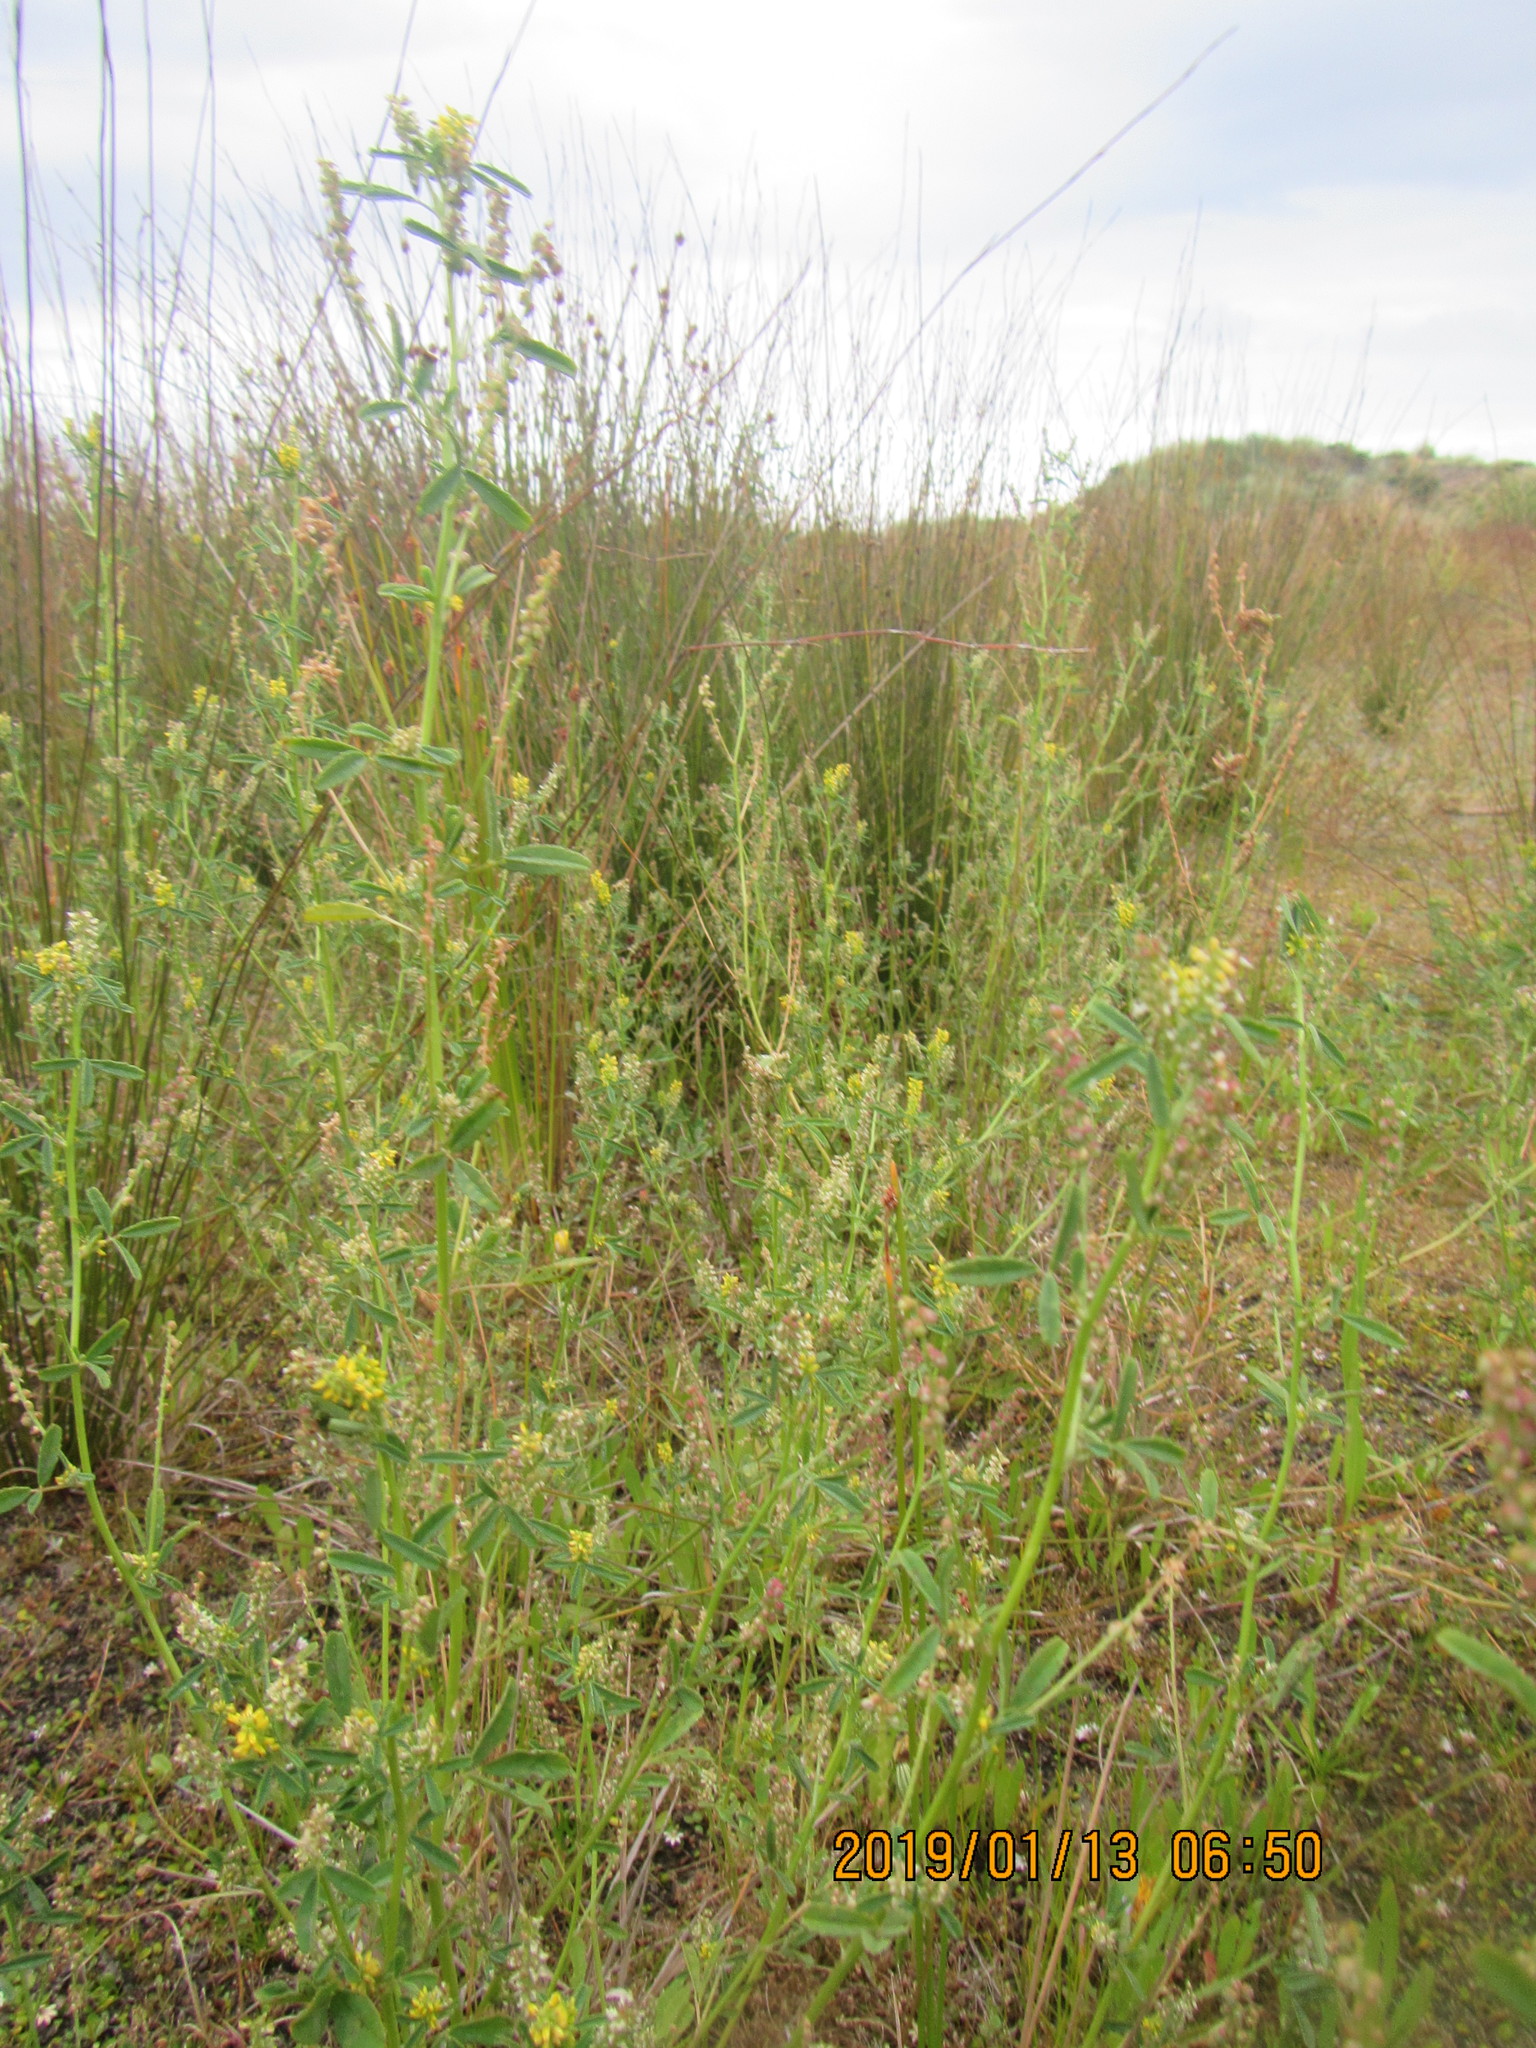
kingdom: Plantae
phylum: Tracheophyta
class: Magnoliopsida
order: Fabales
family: Fabaceae
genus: Melilotus
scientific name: Melilotus indicus
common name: Small melilot
